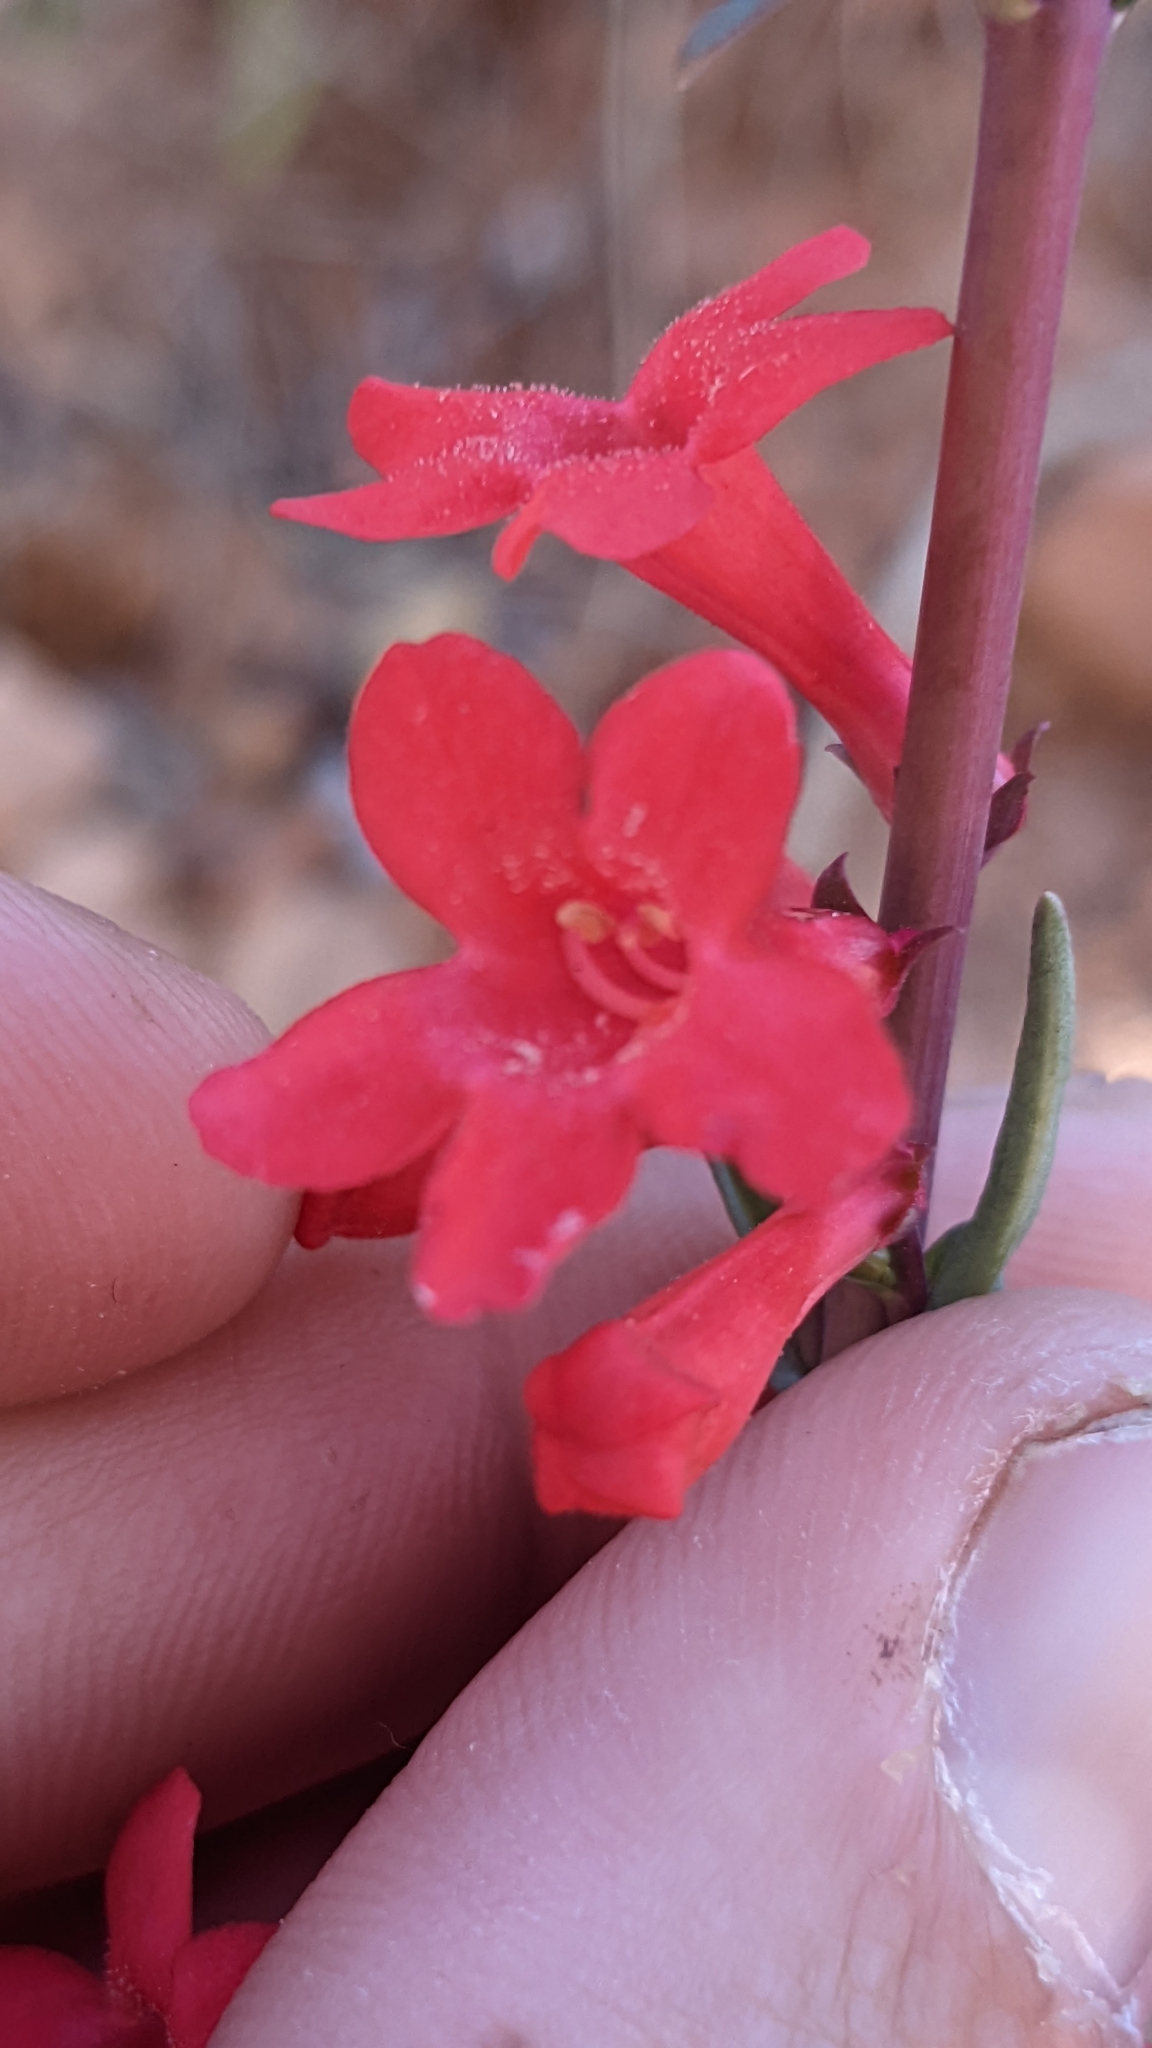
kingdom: Plantae
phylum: Tracheophyta
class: Magnoliopsida
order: Lamiales
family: Plantaginaceae
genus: Penstemon
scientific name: Penstemon utahensis
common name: Utah penstemon
